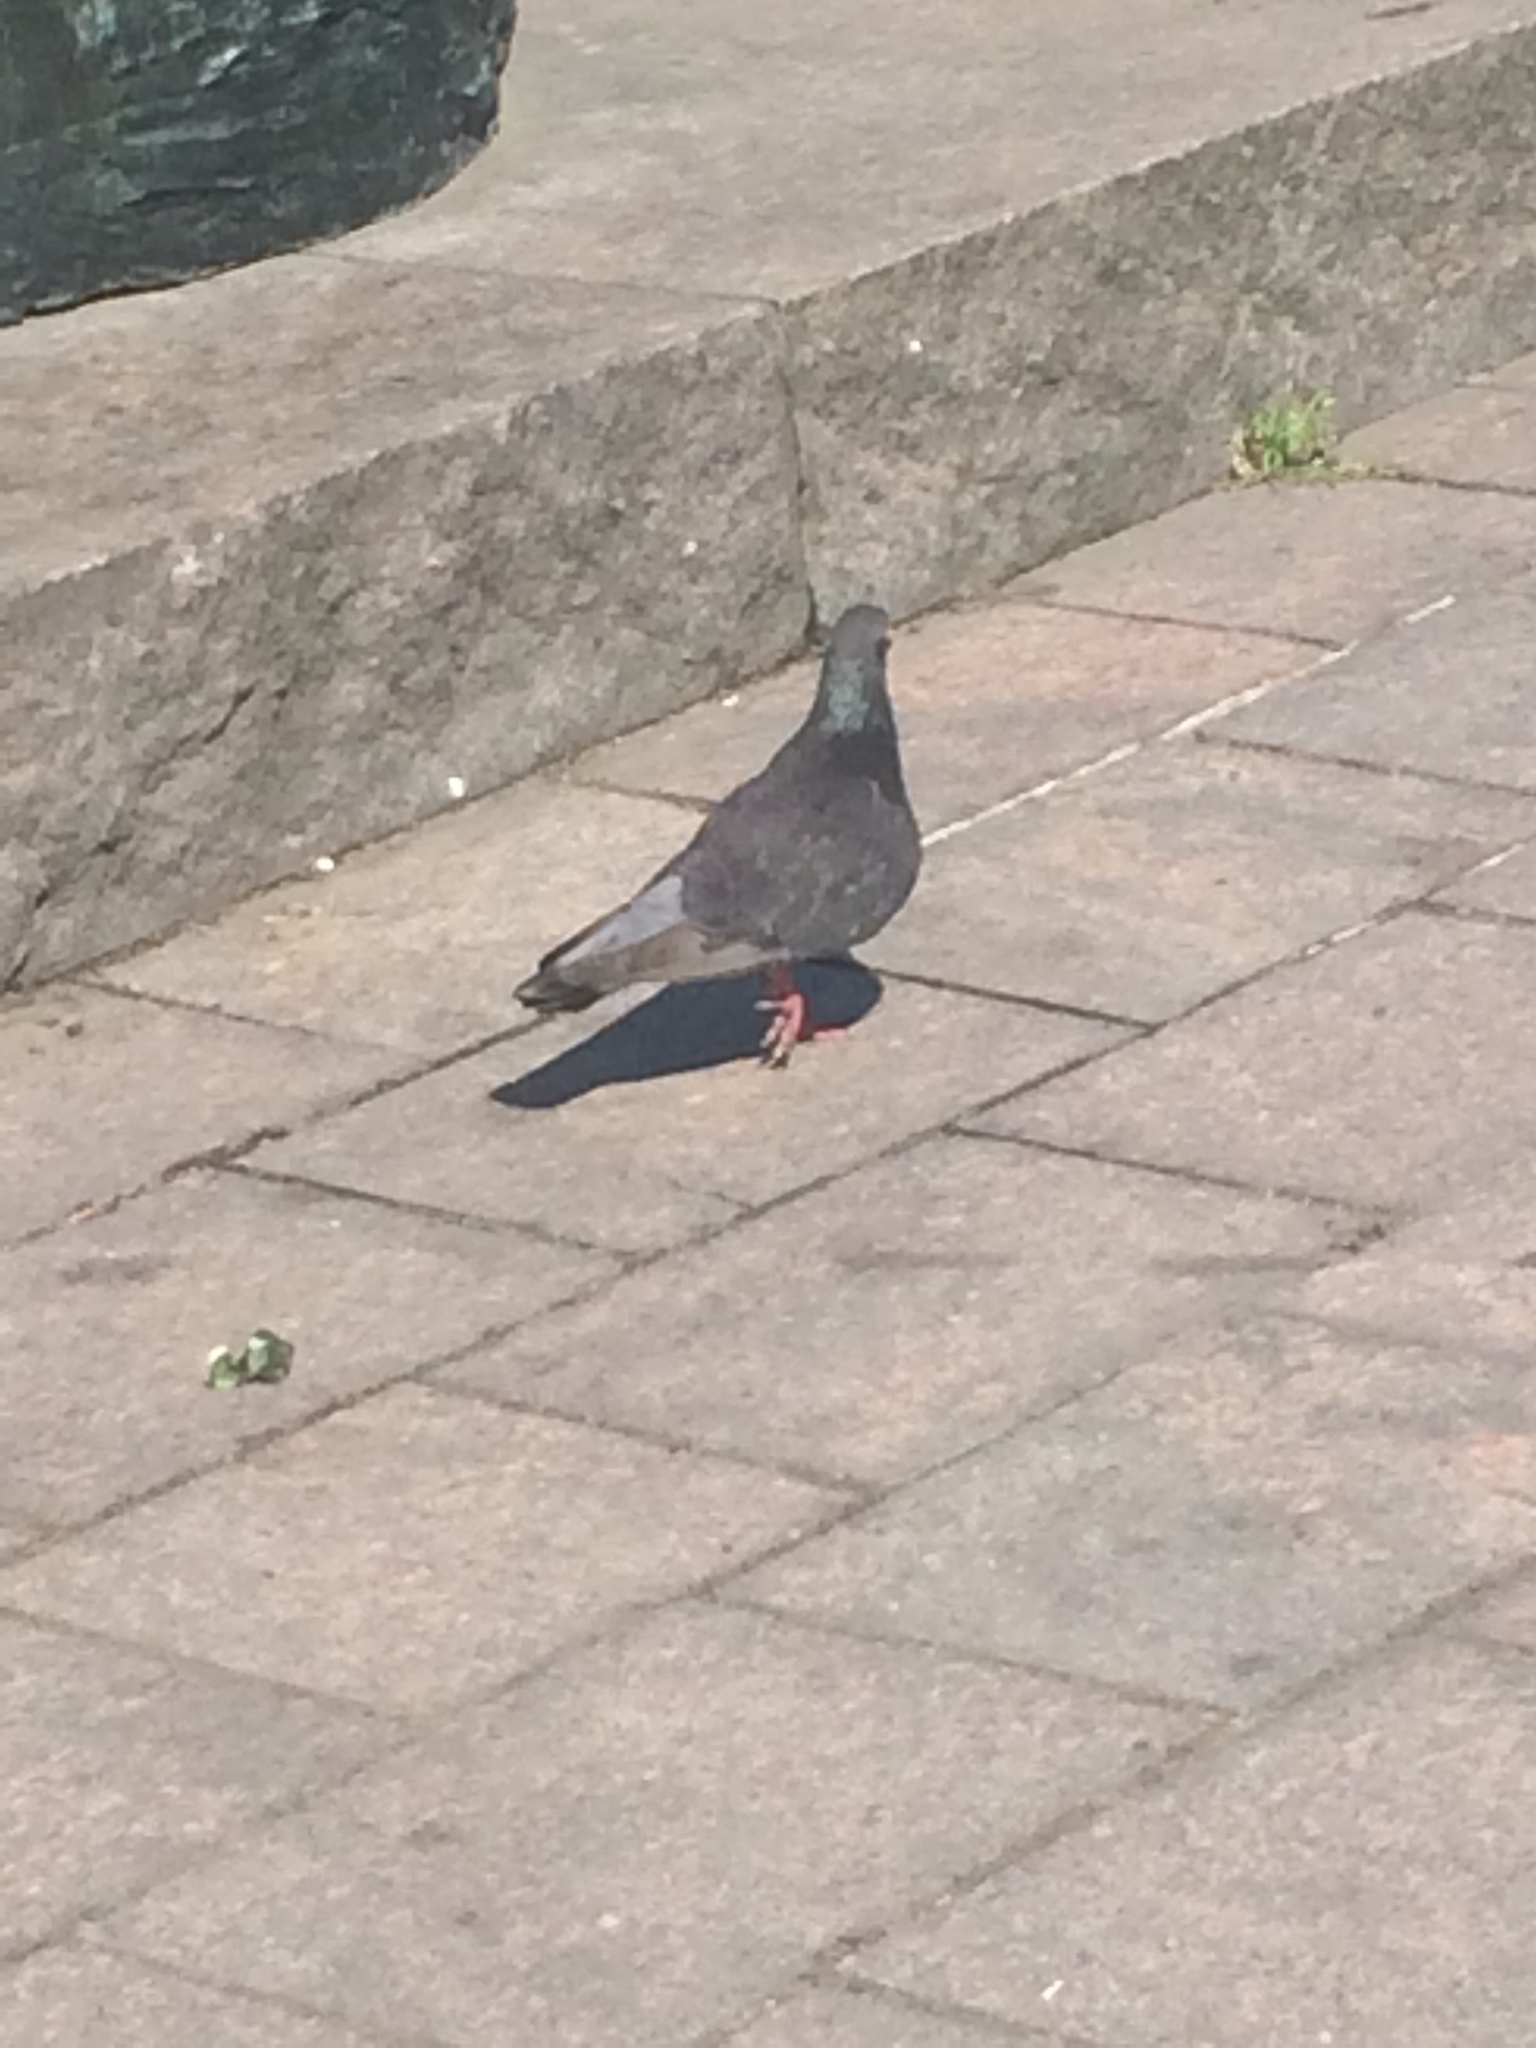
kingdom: Animalia
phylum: Chordata
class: Aves
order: Columbiformes
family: Columbidae
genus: Columba
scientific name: Columba livia
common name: Rock pigeon
